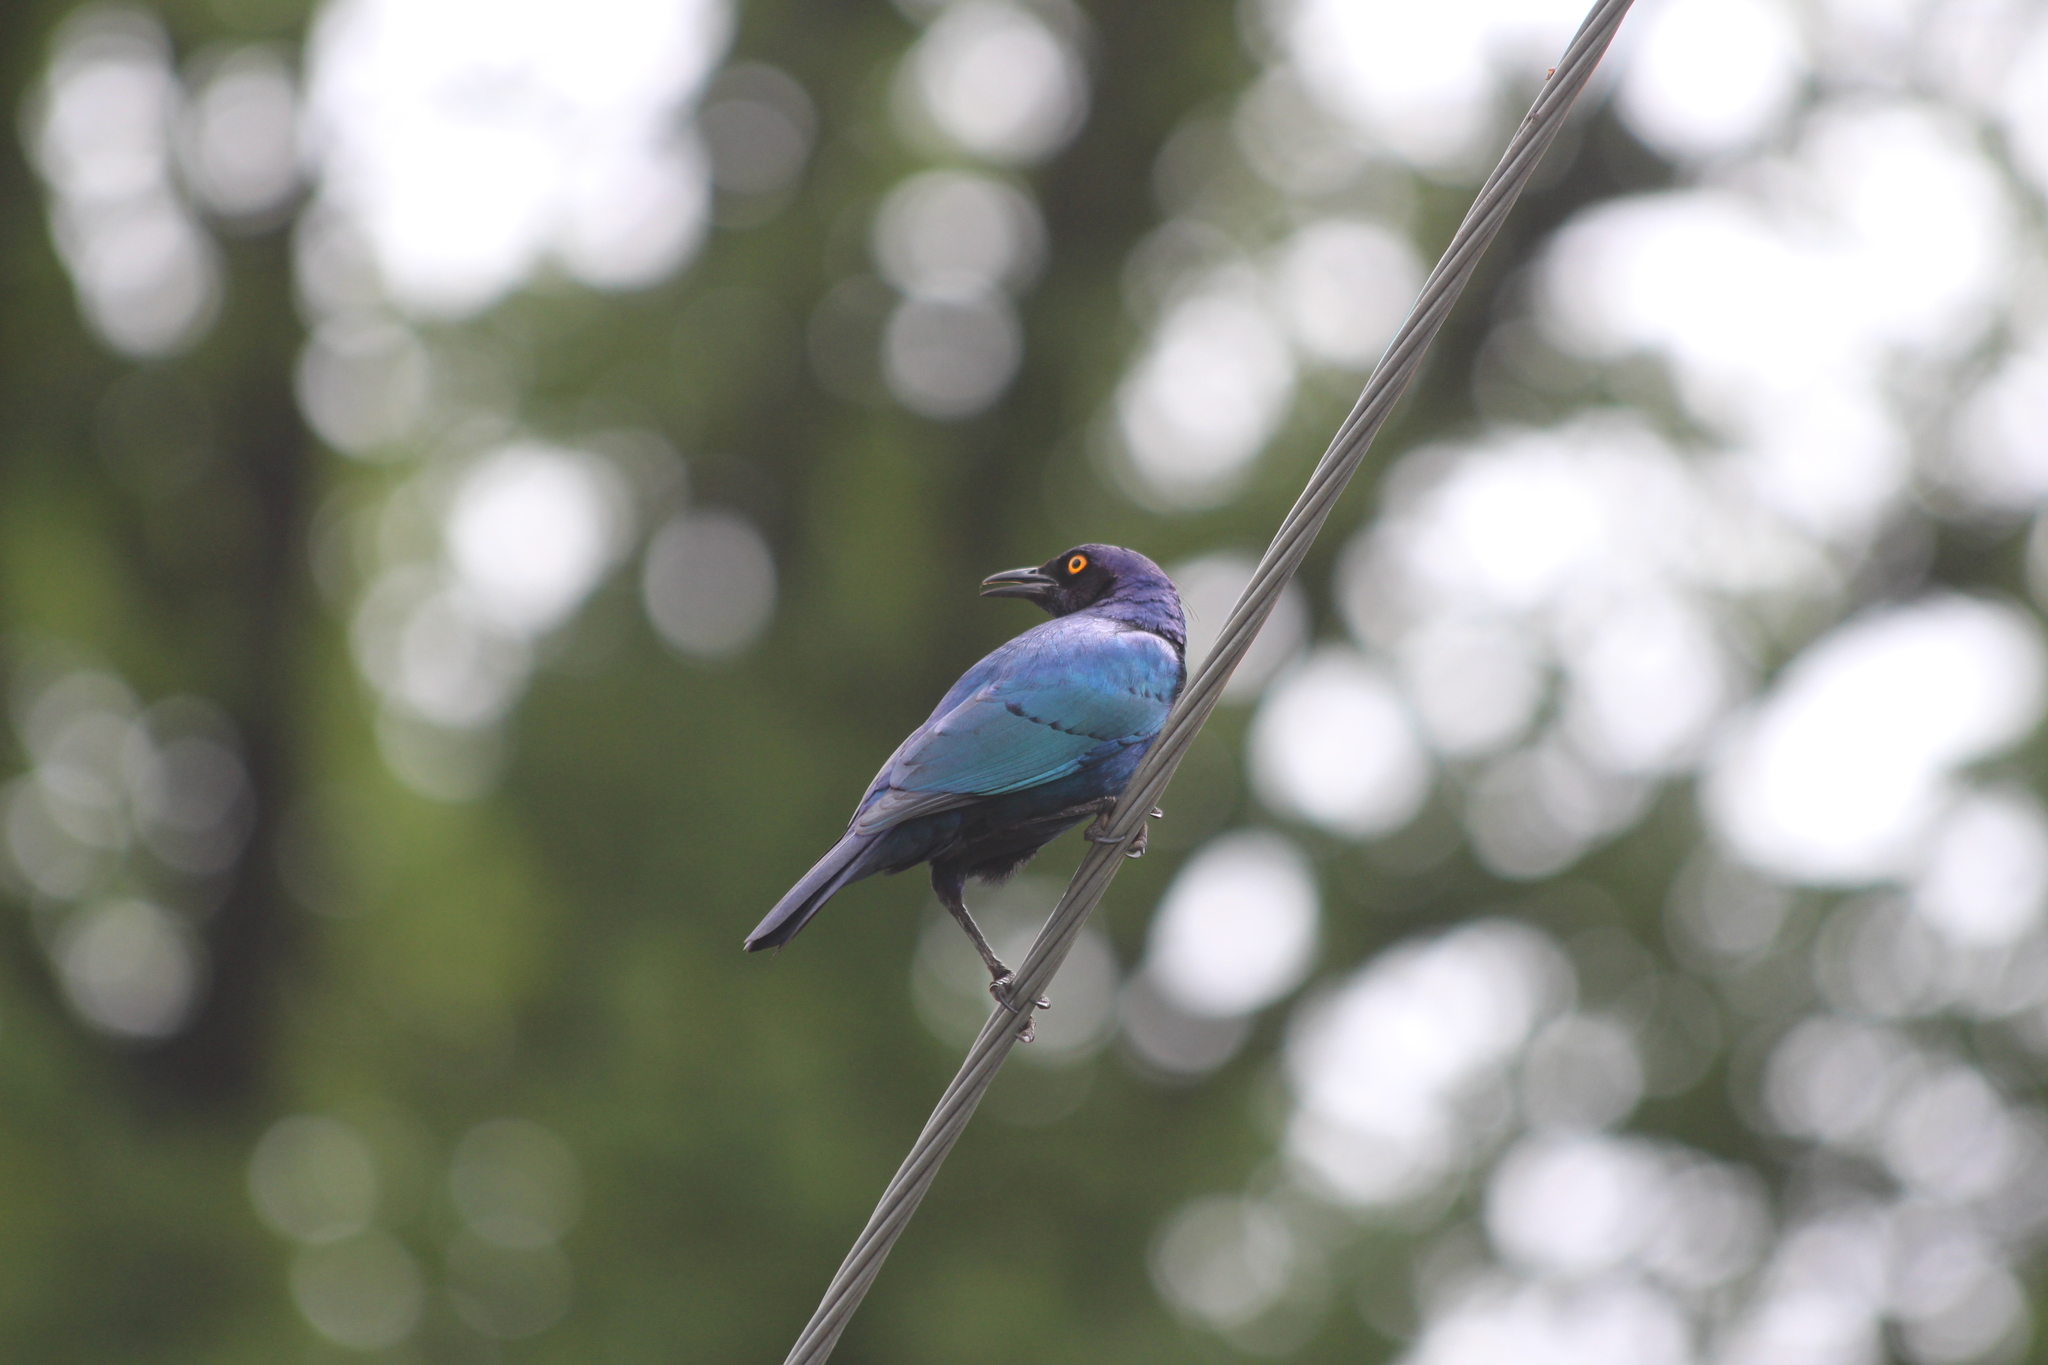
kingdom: Animalia
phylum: Chordata
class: Aves
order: Passeriformes
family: Sturnidae
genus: Lamprotornis
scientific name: Lamprotornis nitens
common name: Cape starling
